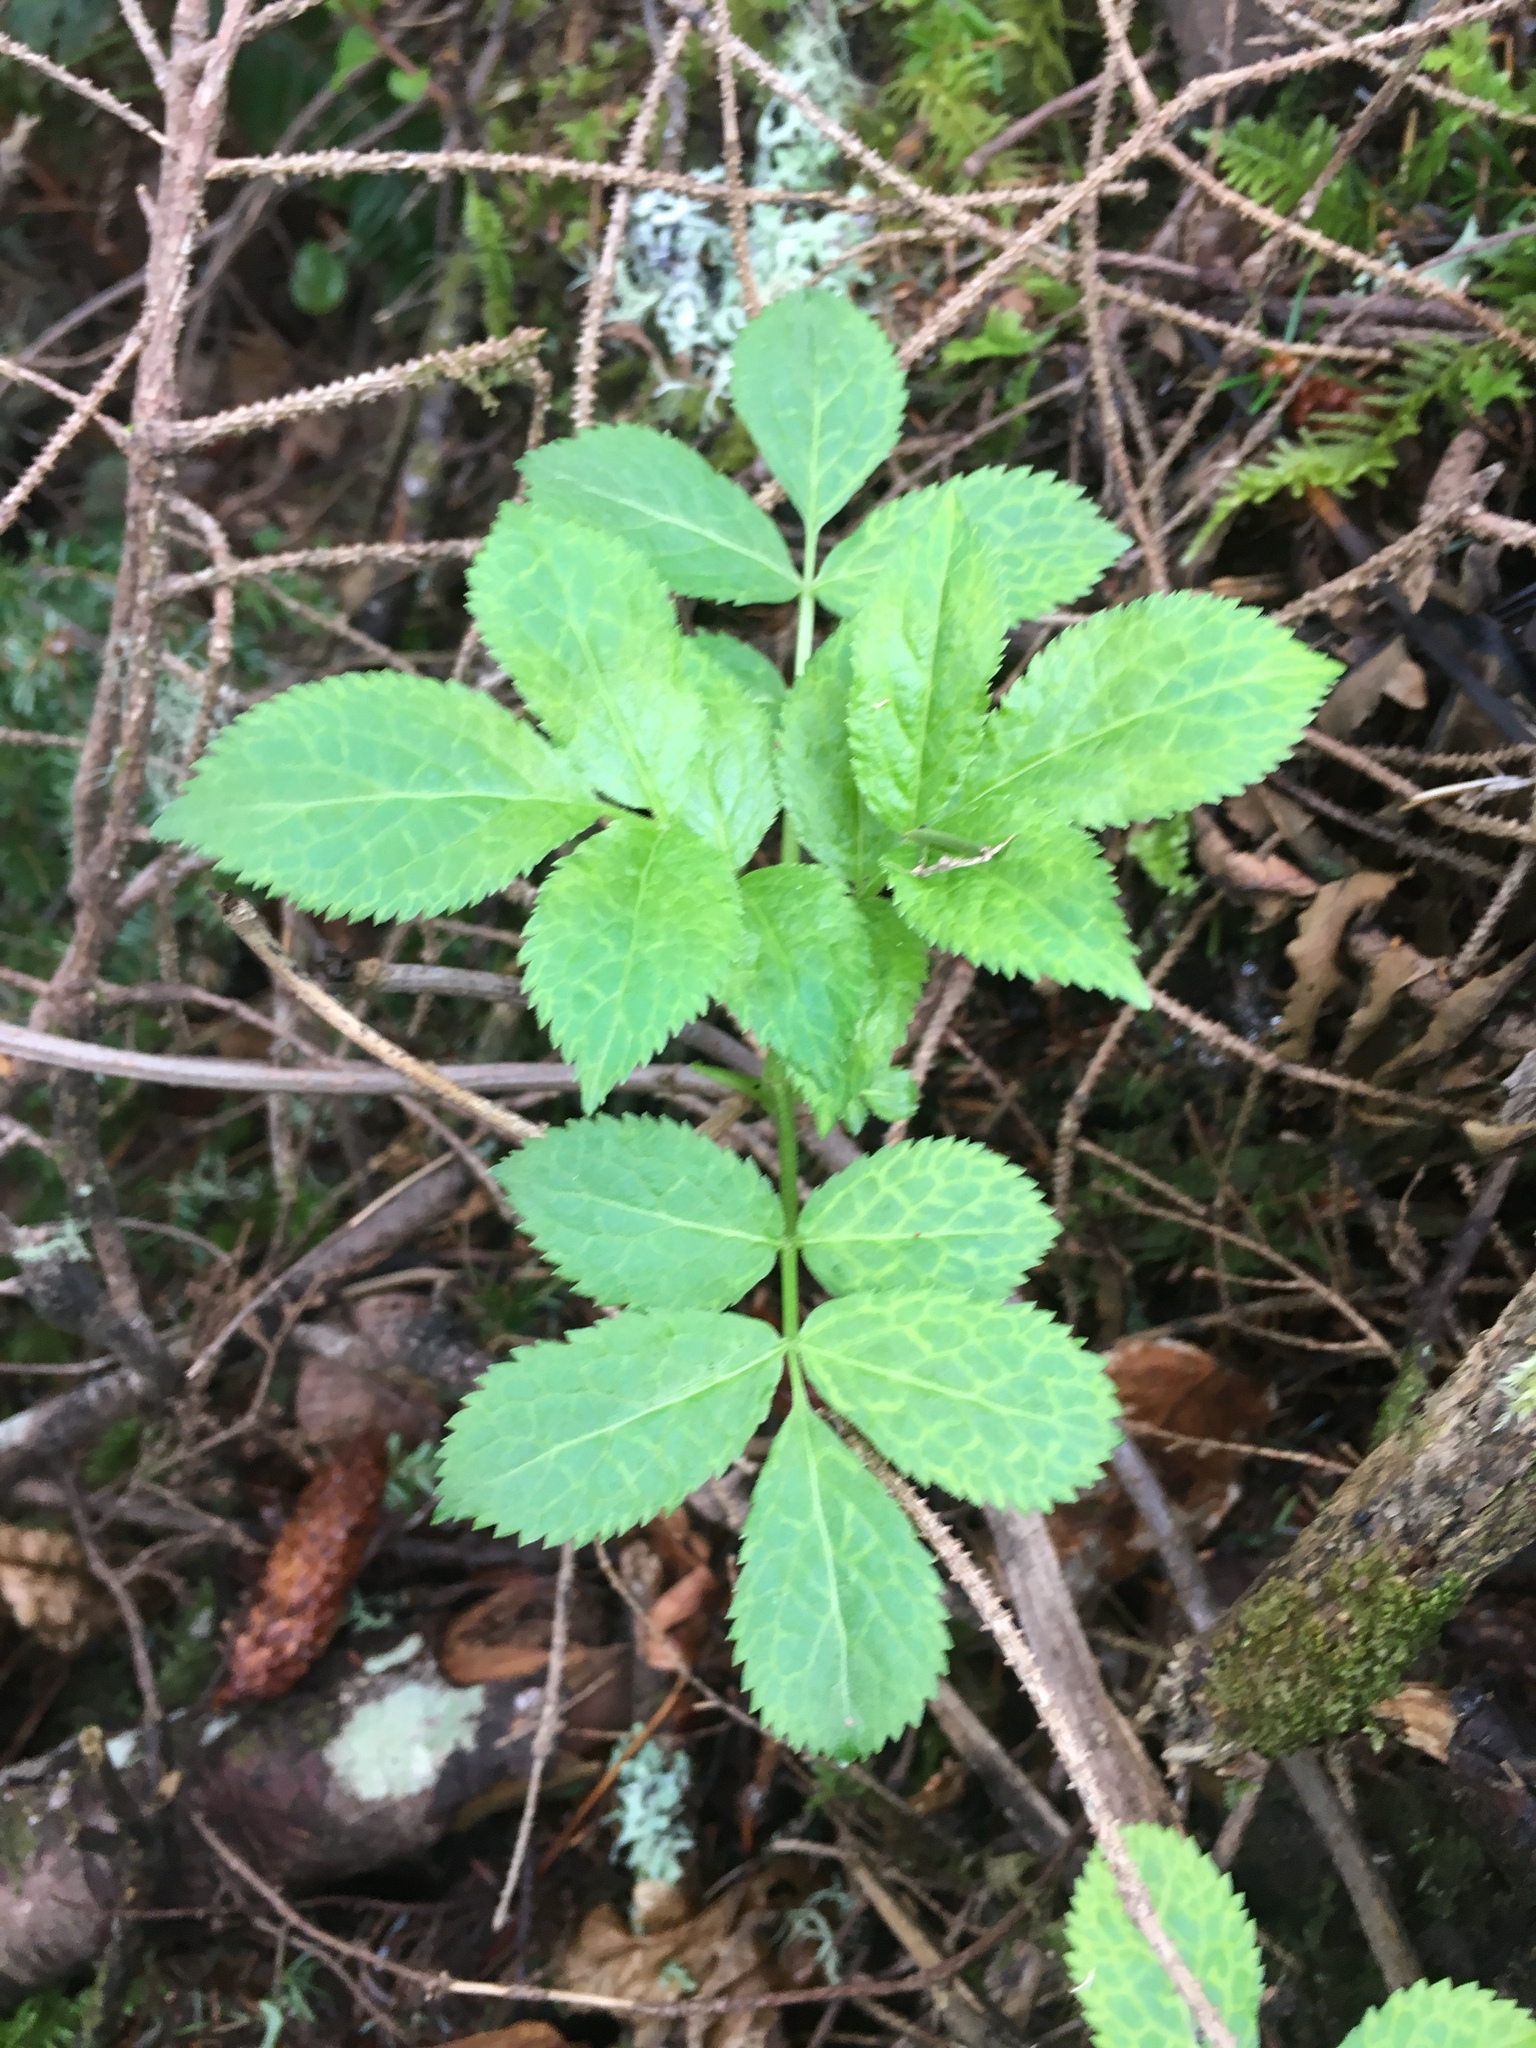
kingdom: Plantae
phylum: Tracheophyta
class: Magnoliopsida
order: Dipsacales
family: Viburnaceae
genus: Sambucus
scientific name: Sambucus cerulea
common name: Blue elder
